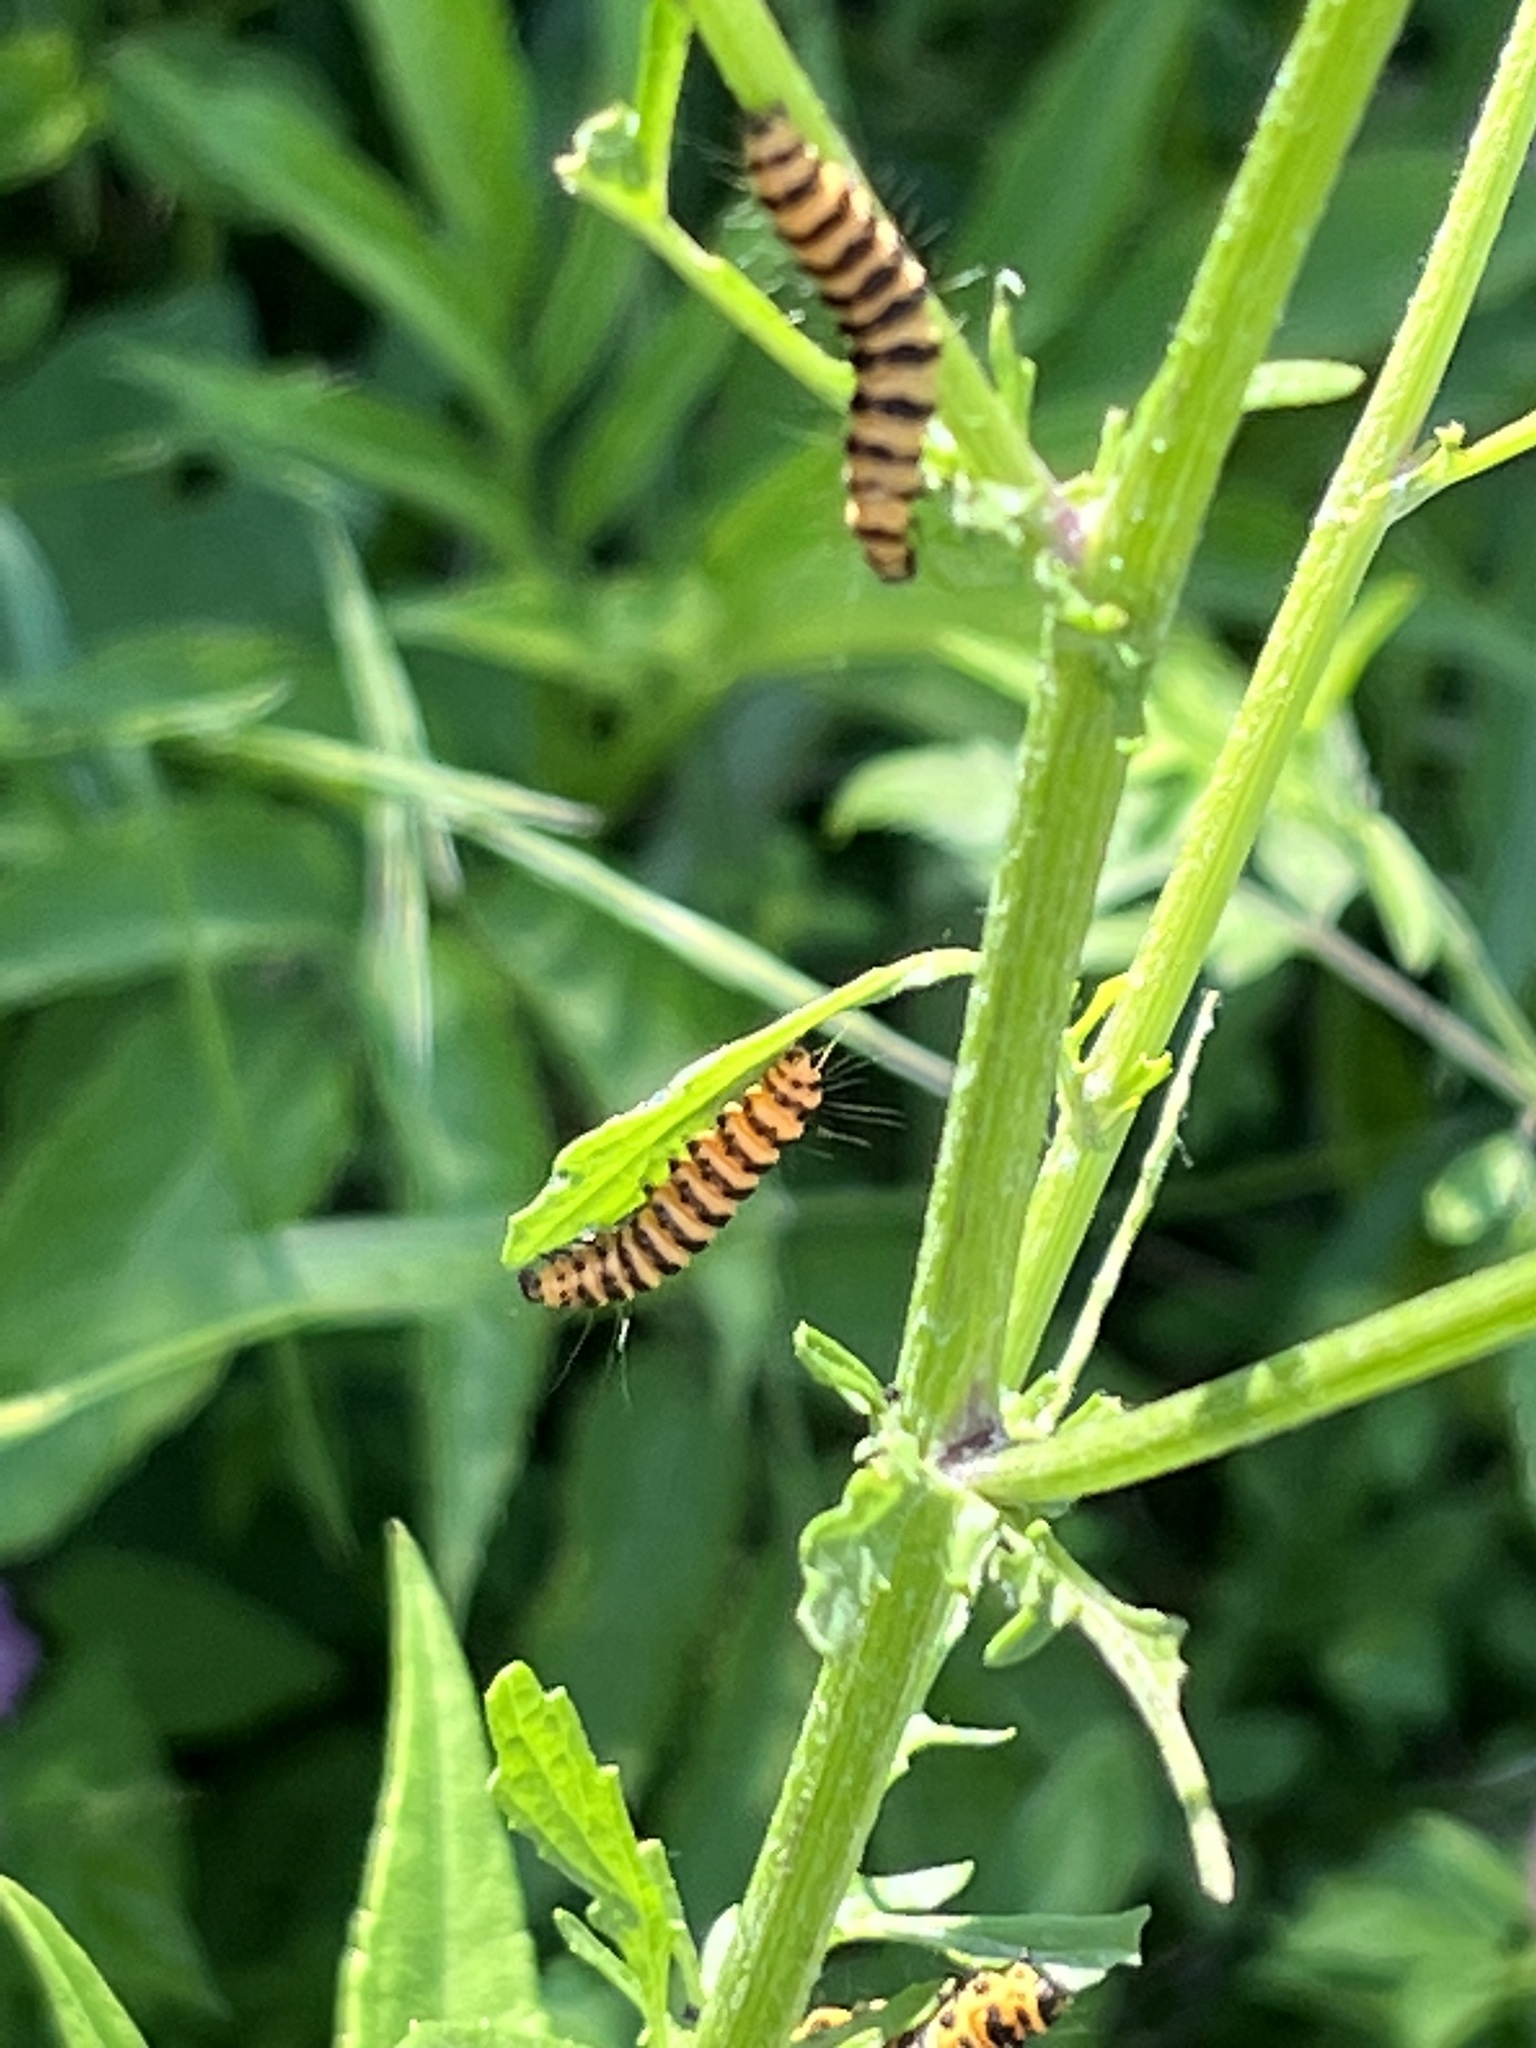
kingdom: Animalia
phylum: Arthropoda
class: Insecta
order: Lepidoptera
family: Erebidae
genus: Tyria
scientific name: Tyria jacobaeae
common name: Cinnabar
